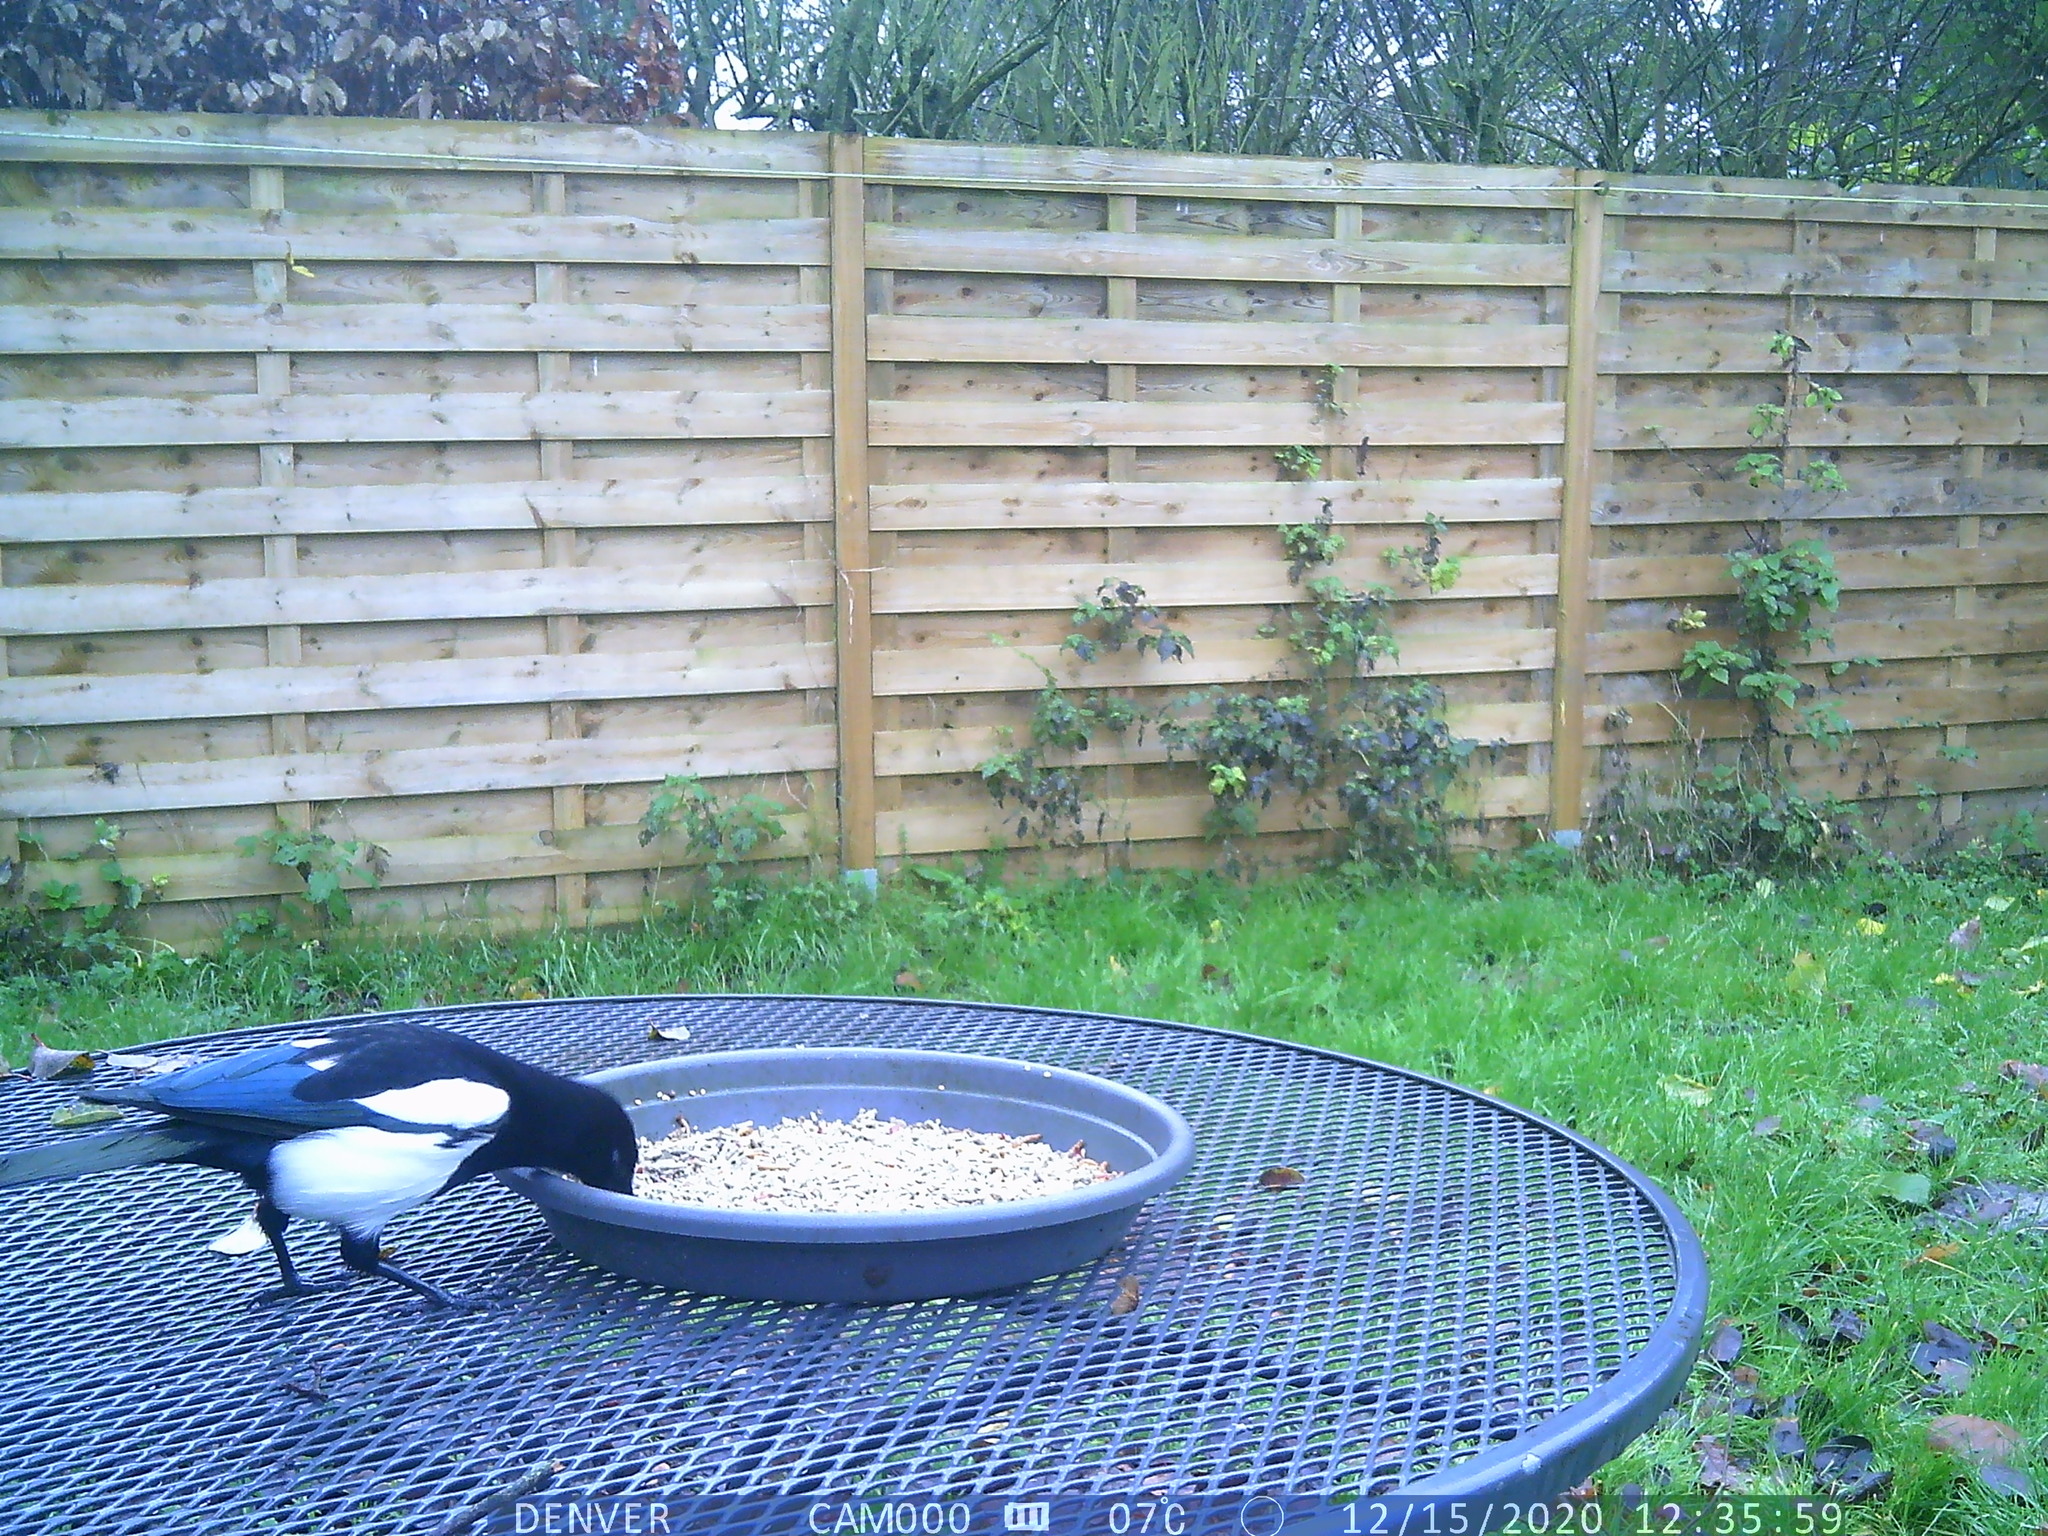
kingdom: Animalia
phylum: Chordata
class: Aves
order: Passeriformes
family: Corvidae
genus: Pica
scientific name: Pica pica
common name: Eurasian magpie
